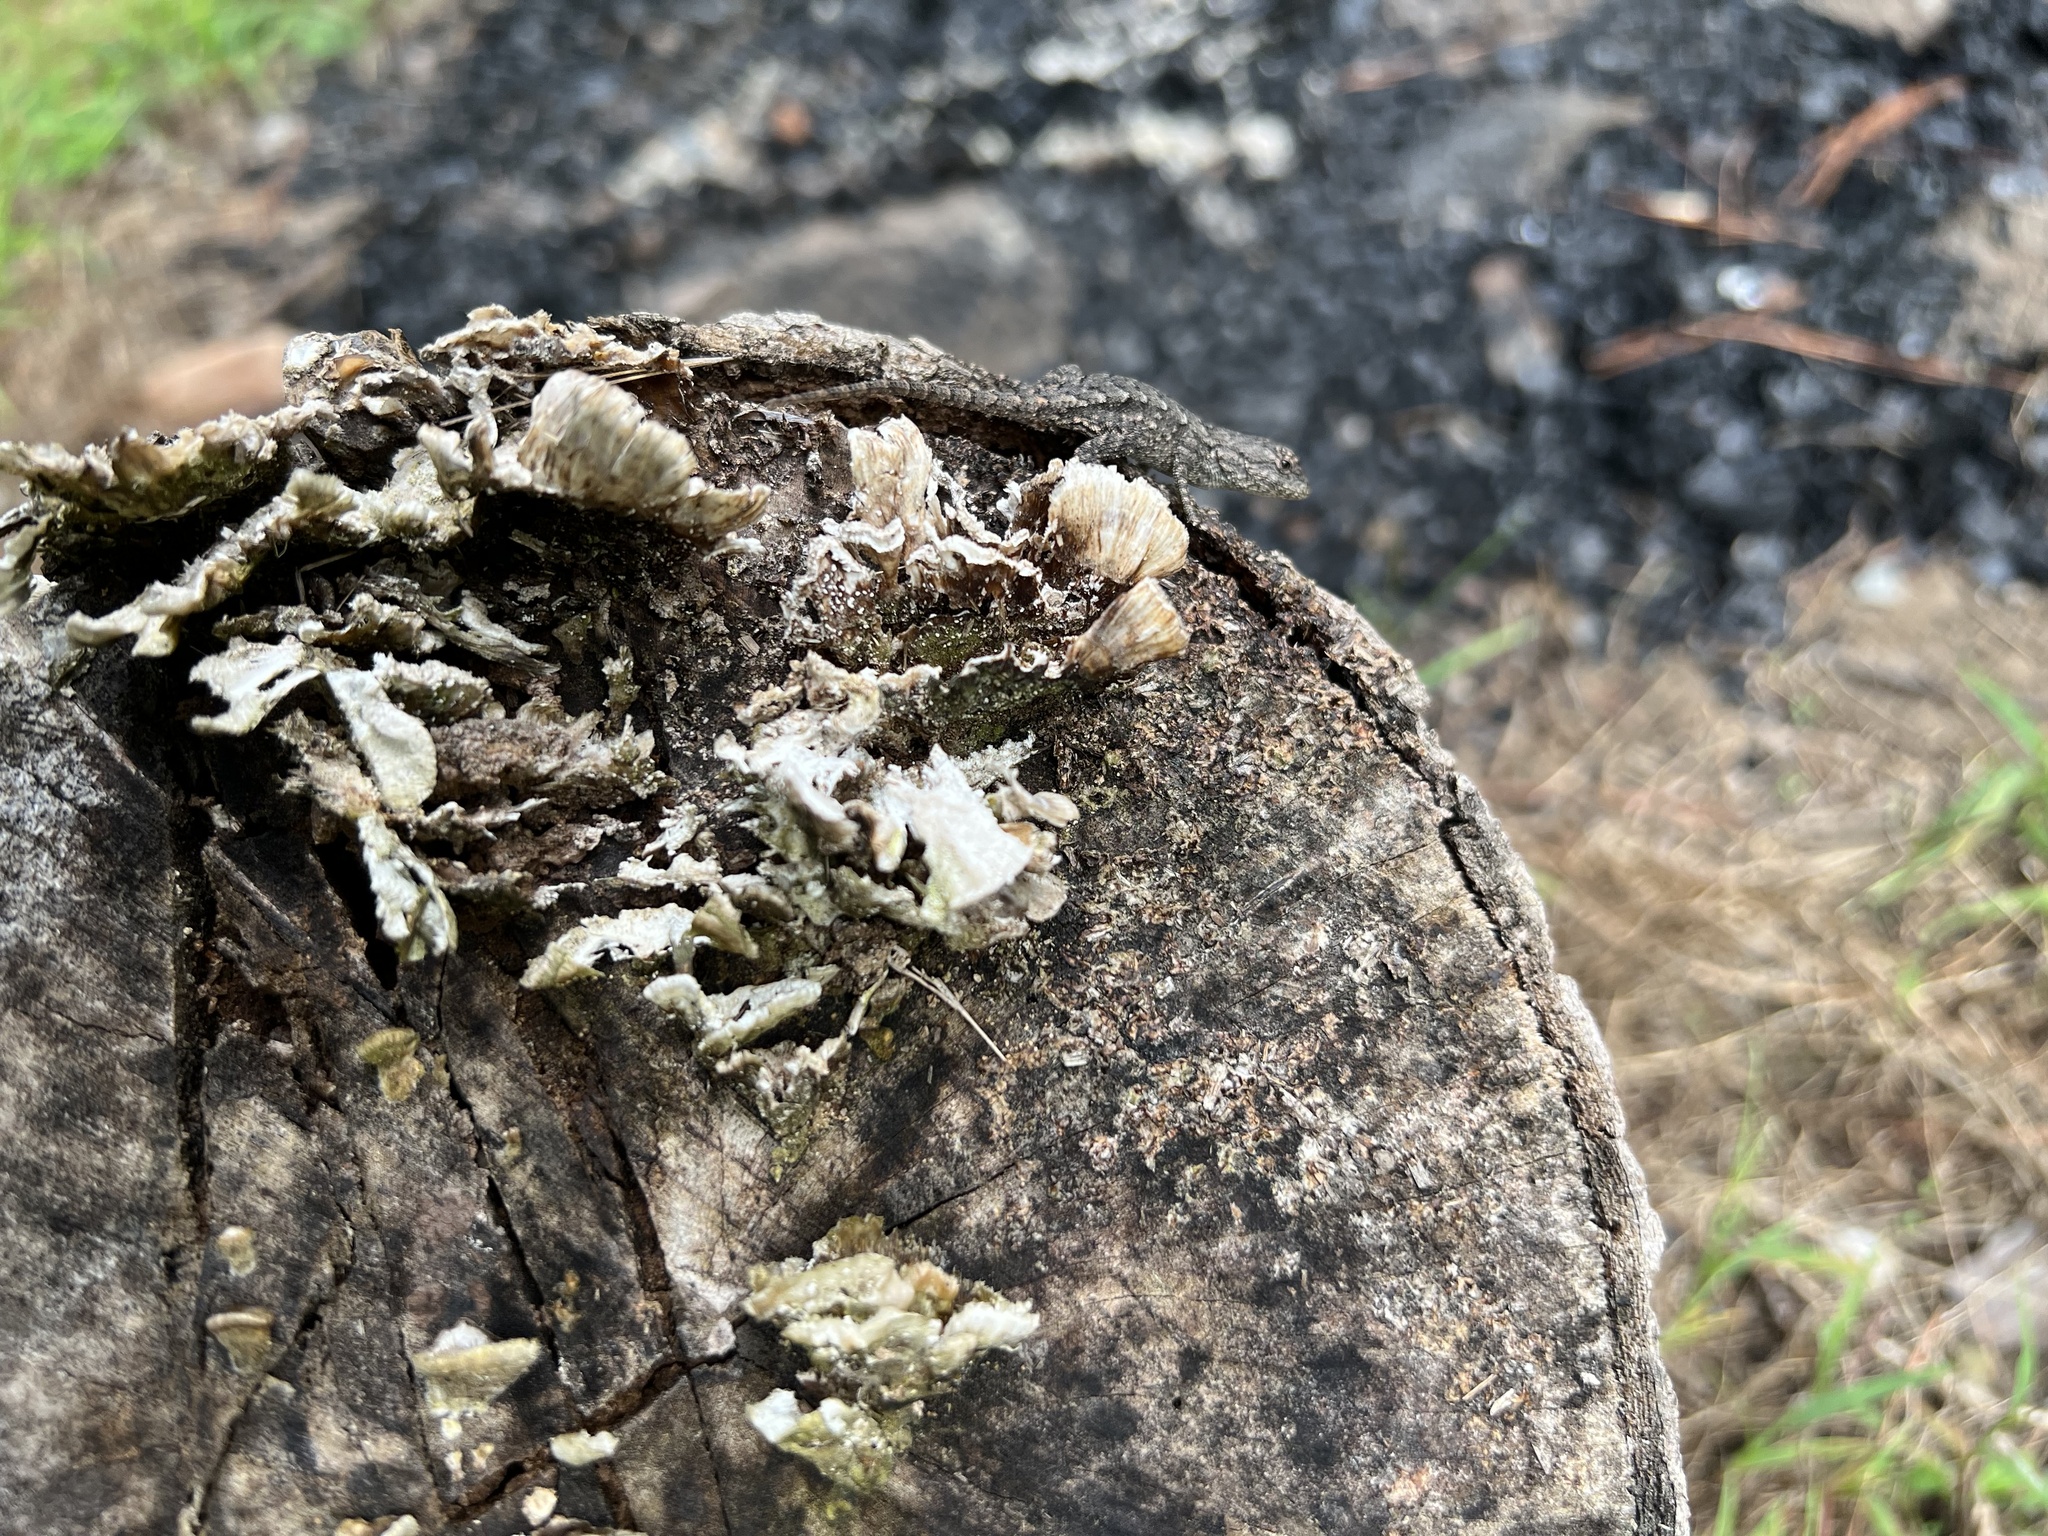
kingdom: Animalia
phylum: Chordata
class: Squamata
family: Phrynosomatidae
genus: Sceloporus
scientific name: Sceloporus undulatus
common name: Eastern fence lizard
